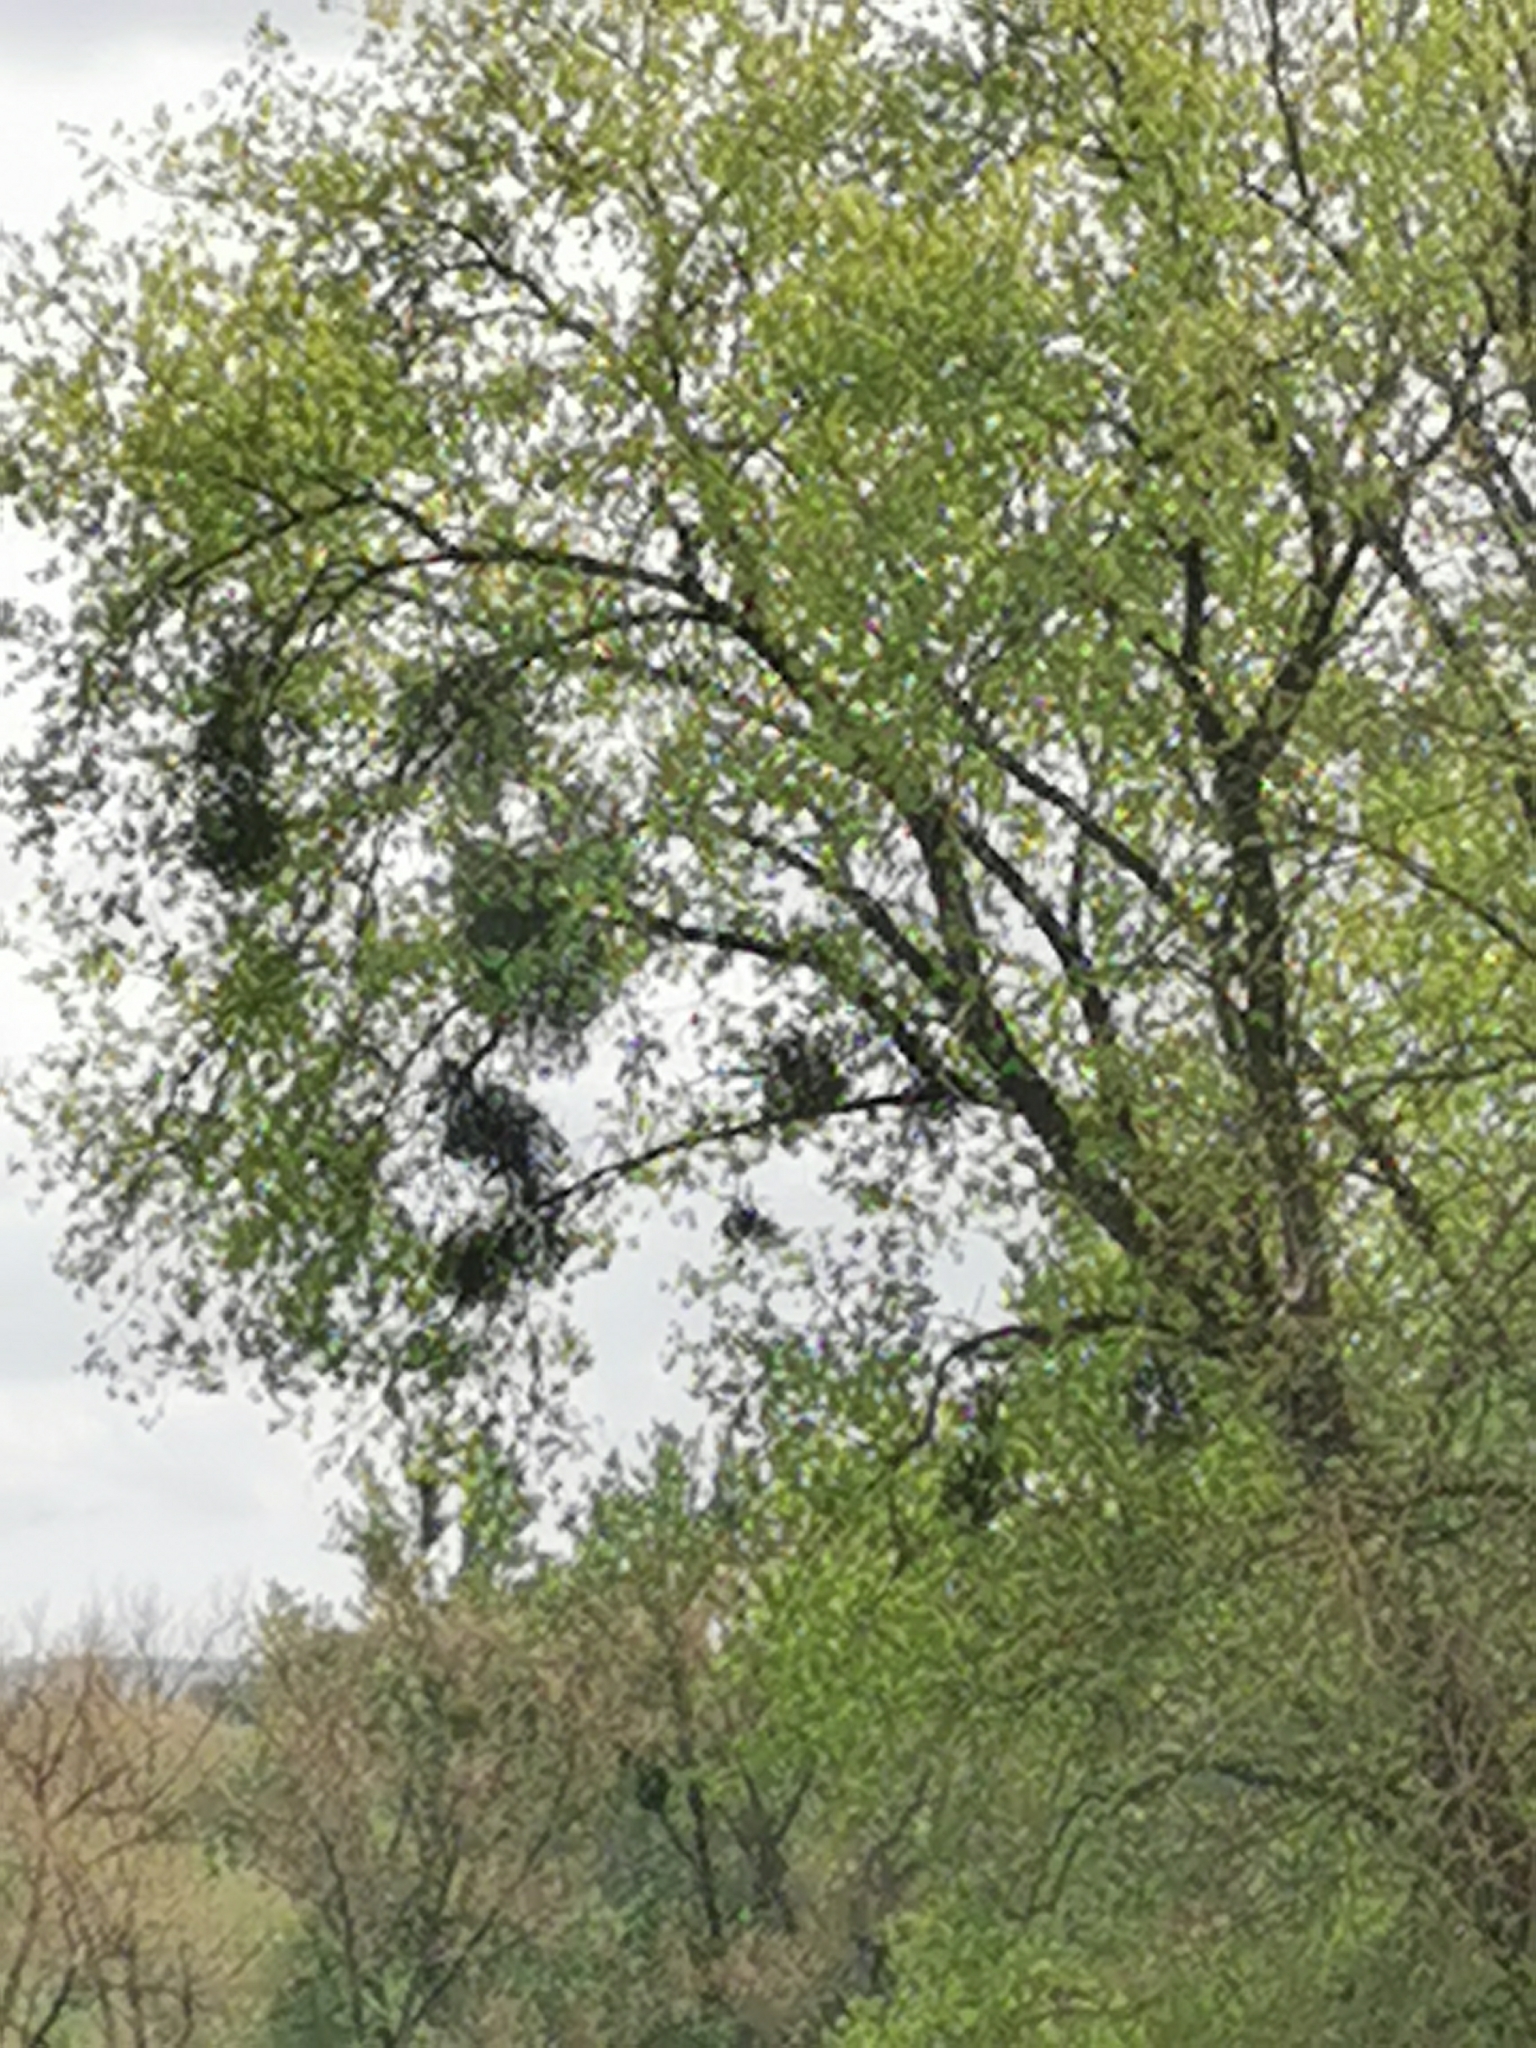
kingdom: Plantae
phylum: Tracheophyta
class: Magnoliopsida
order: Santalales
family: Viscaceae
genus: Viscum
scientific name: Viscum album
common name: Mistletoe
